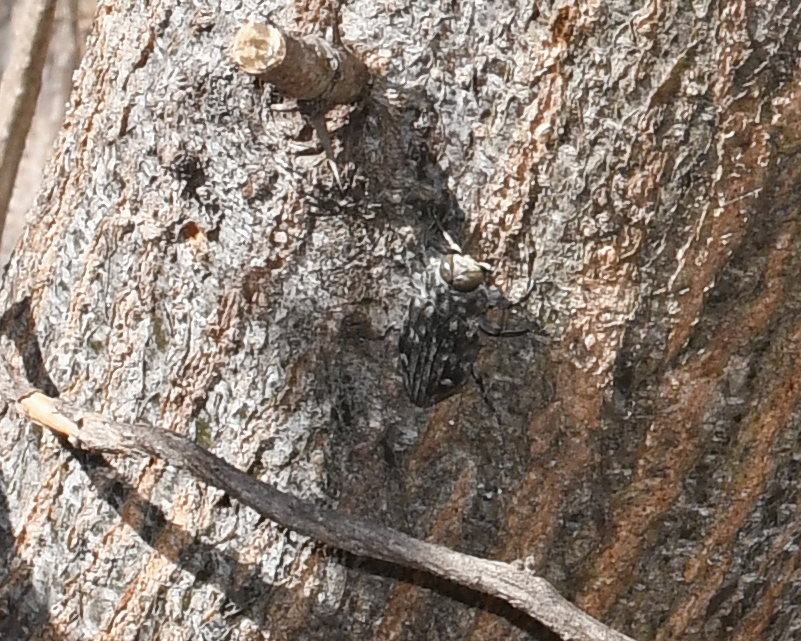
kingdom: Animalia
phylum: Arthropoda
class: Insecta
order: Coleoptera
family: Buprestidae
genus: Chrysobothris
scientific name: Chrysobothris tranquebarica
